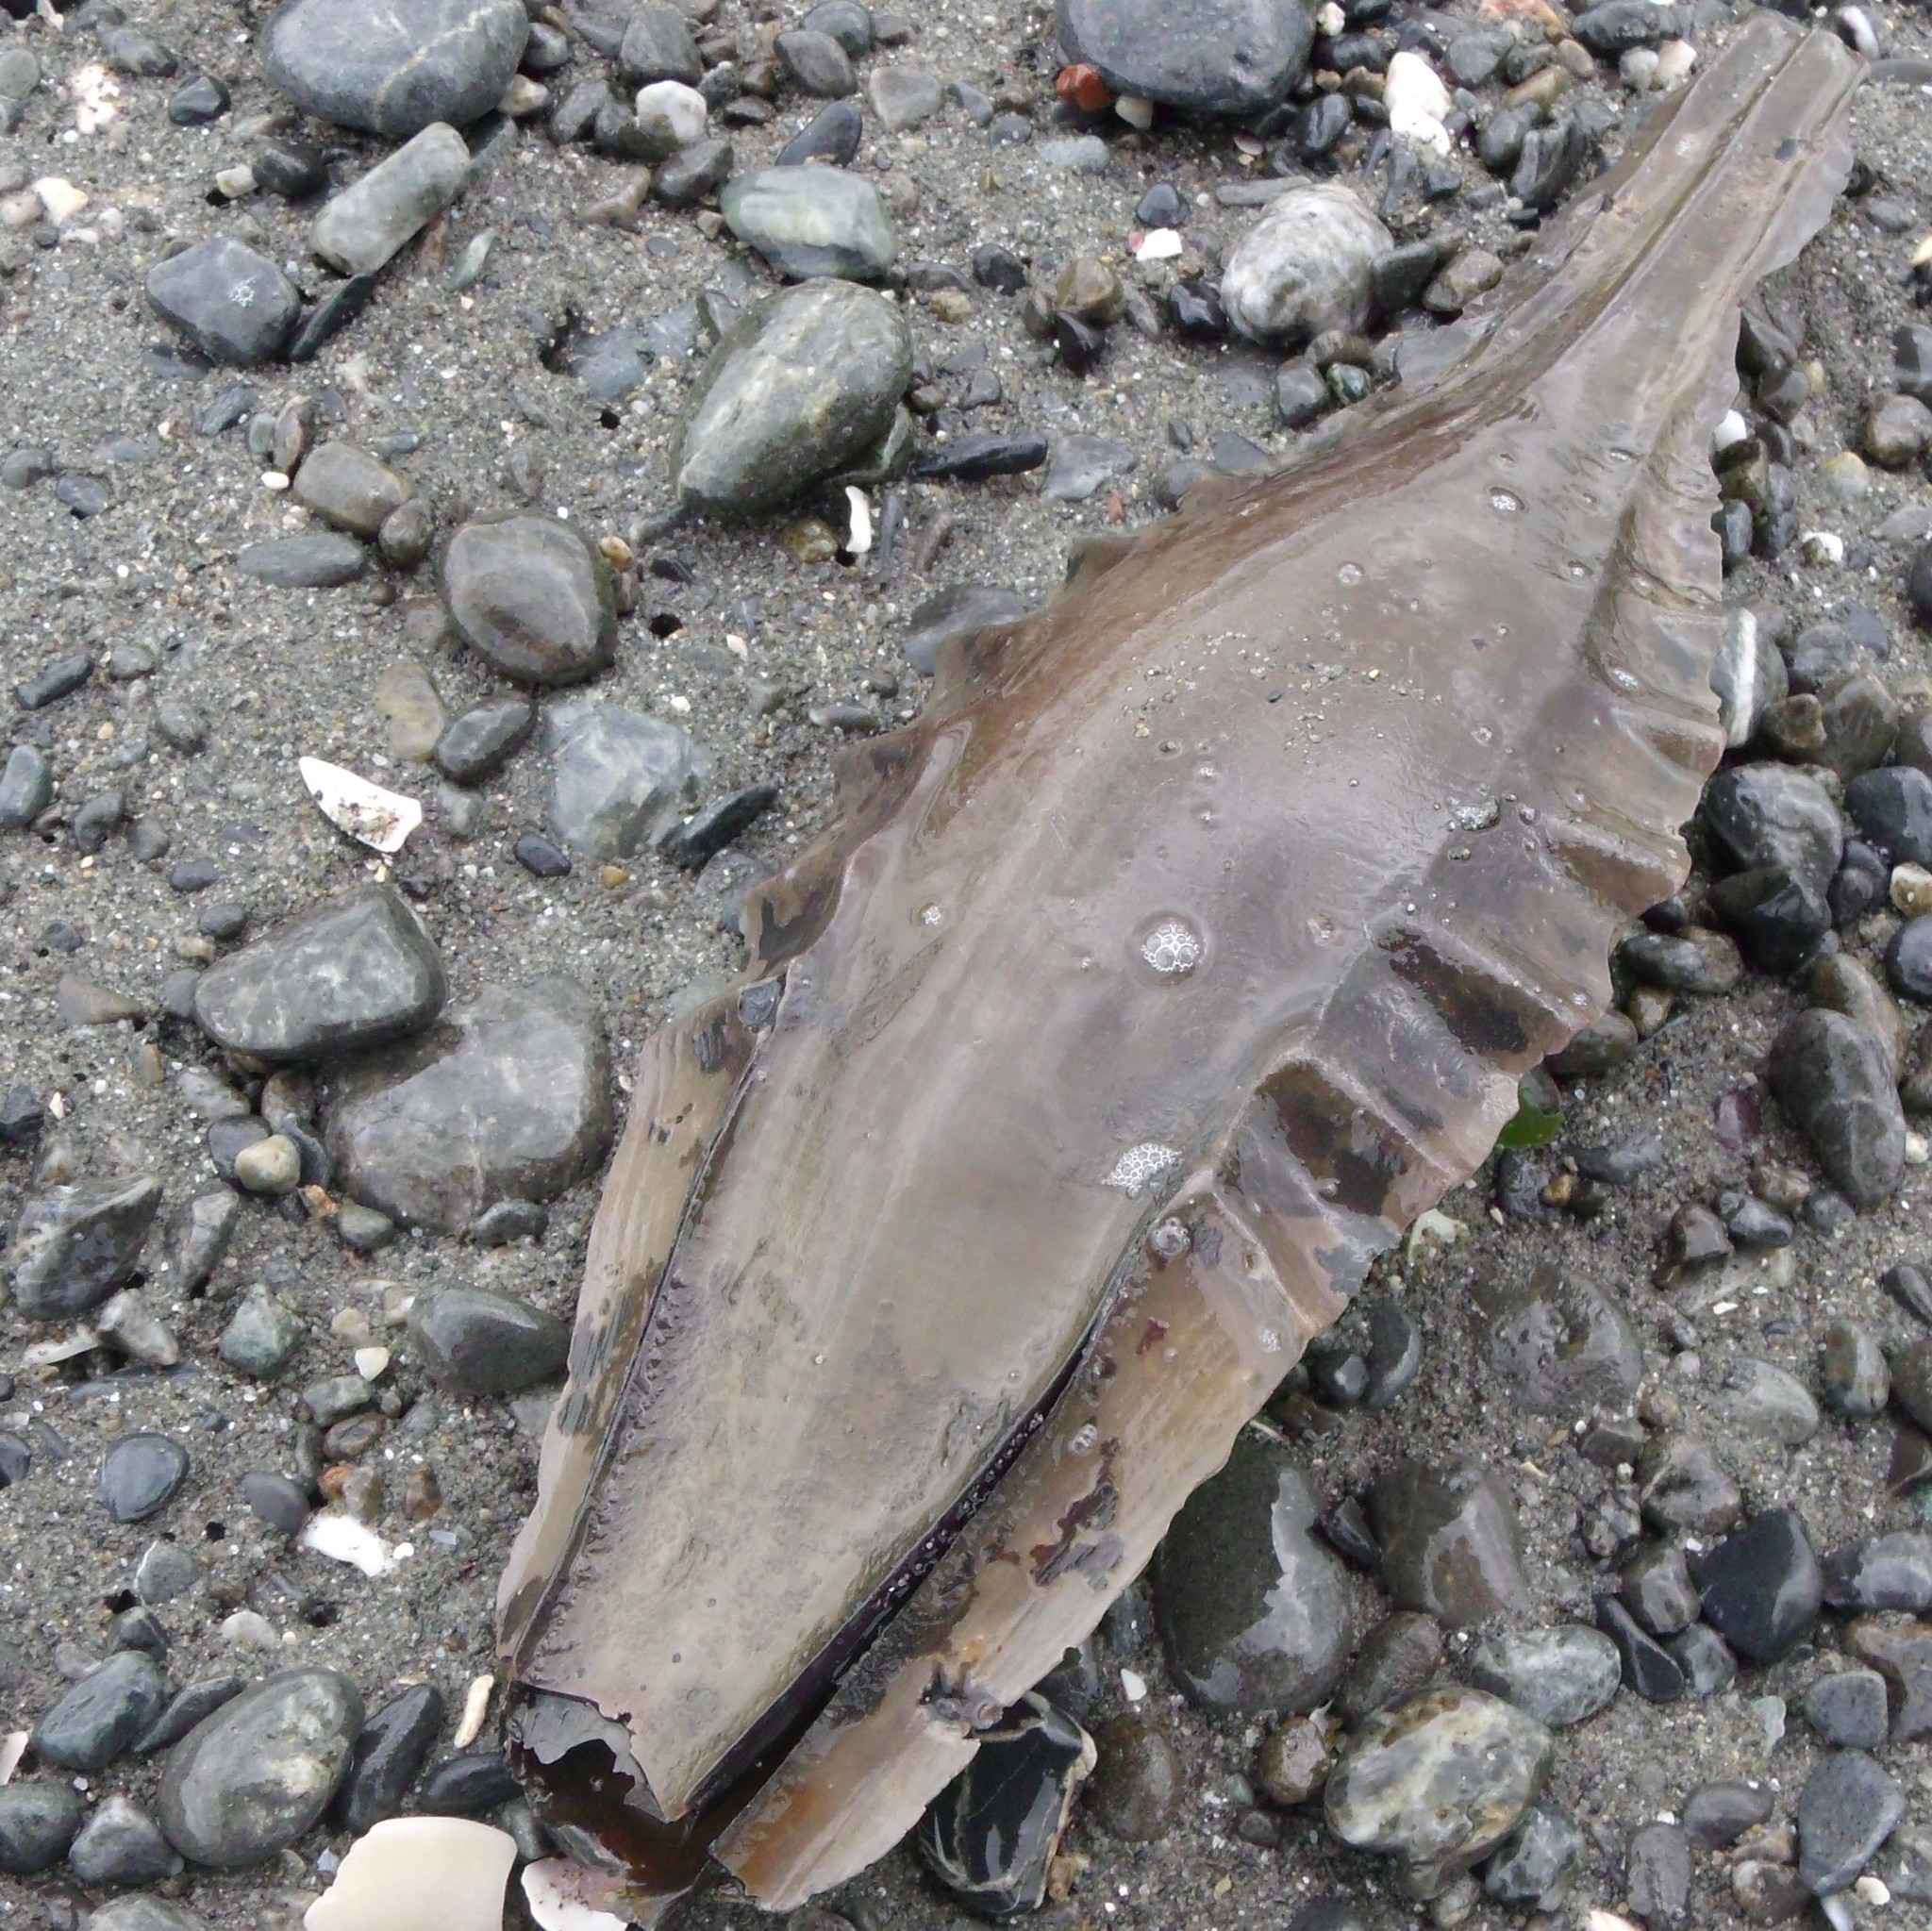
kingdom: Animalia
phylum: Chordata
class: Holocephali
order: Chimaeriformes
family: Callorhinchidae
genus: Callorhinchus
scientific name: Callorhinchus milii
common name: Elephant fish
